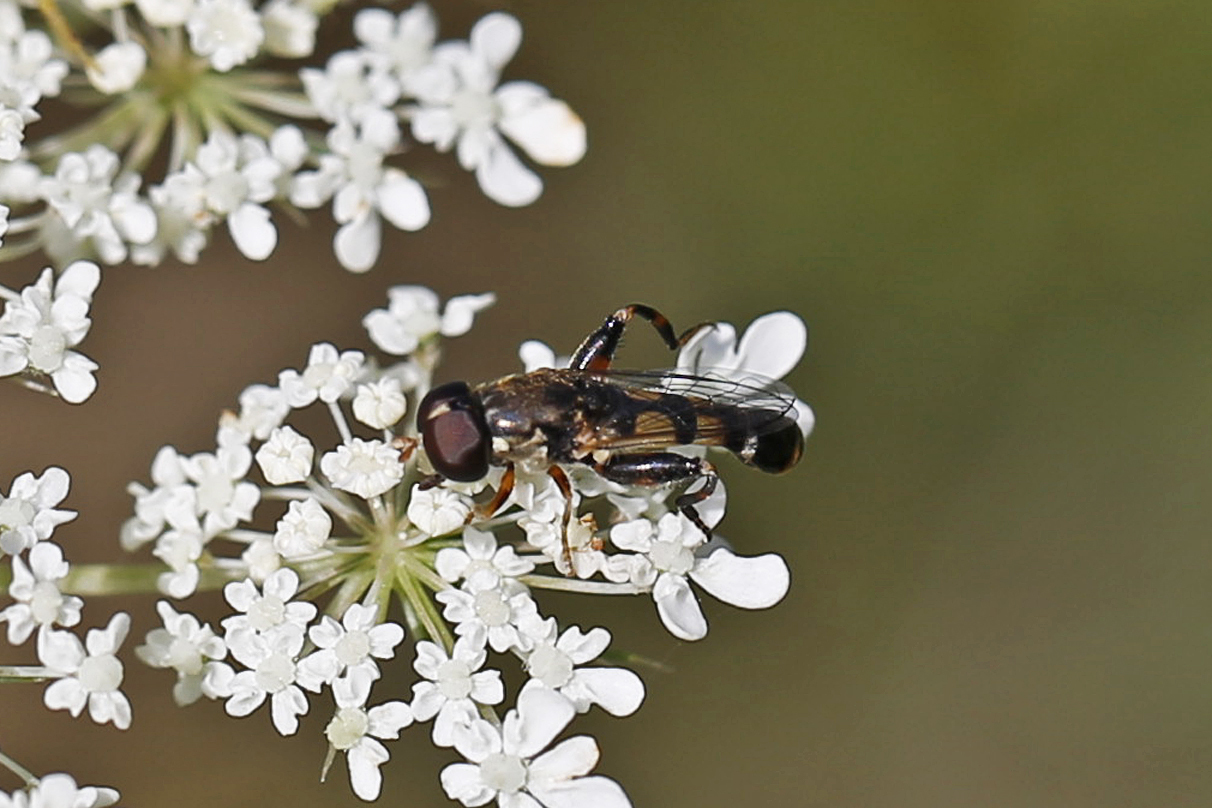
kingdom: Animalia
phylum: Arthropoda
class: Insecta
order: Diptera
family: Syrphidae
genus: Syritta
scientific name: Syritta pipiens
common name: Hover fly
